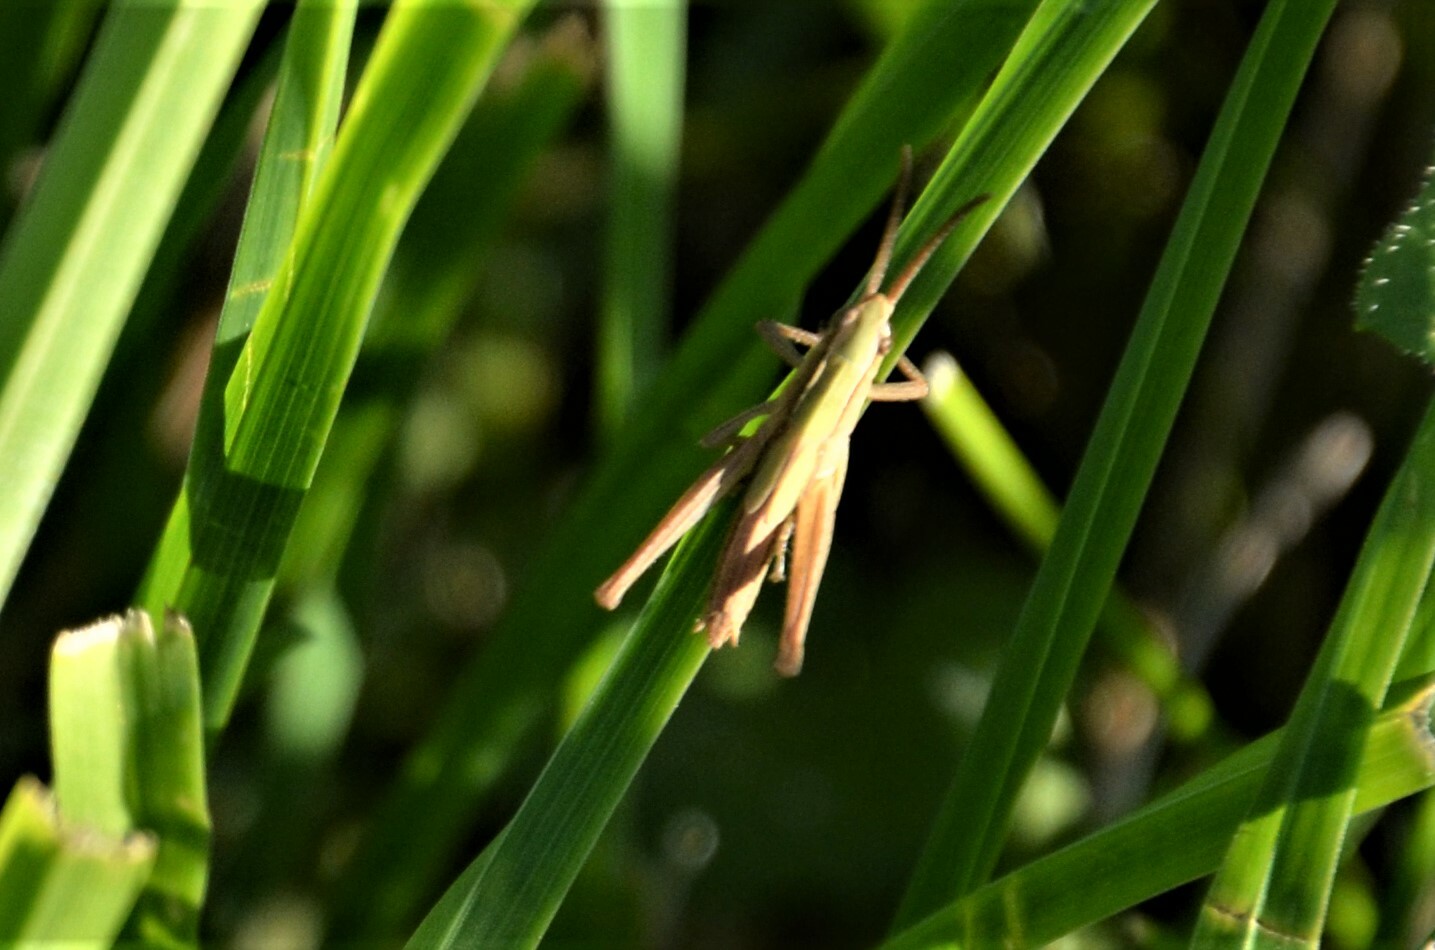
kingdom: Animalia
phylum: Arthropoda
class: Insecta
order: Orthoptera
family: Acrididae
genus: Chorthippus
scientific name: Chorthippus albomarginatus
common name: Lesser marsh grasshopper
